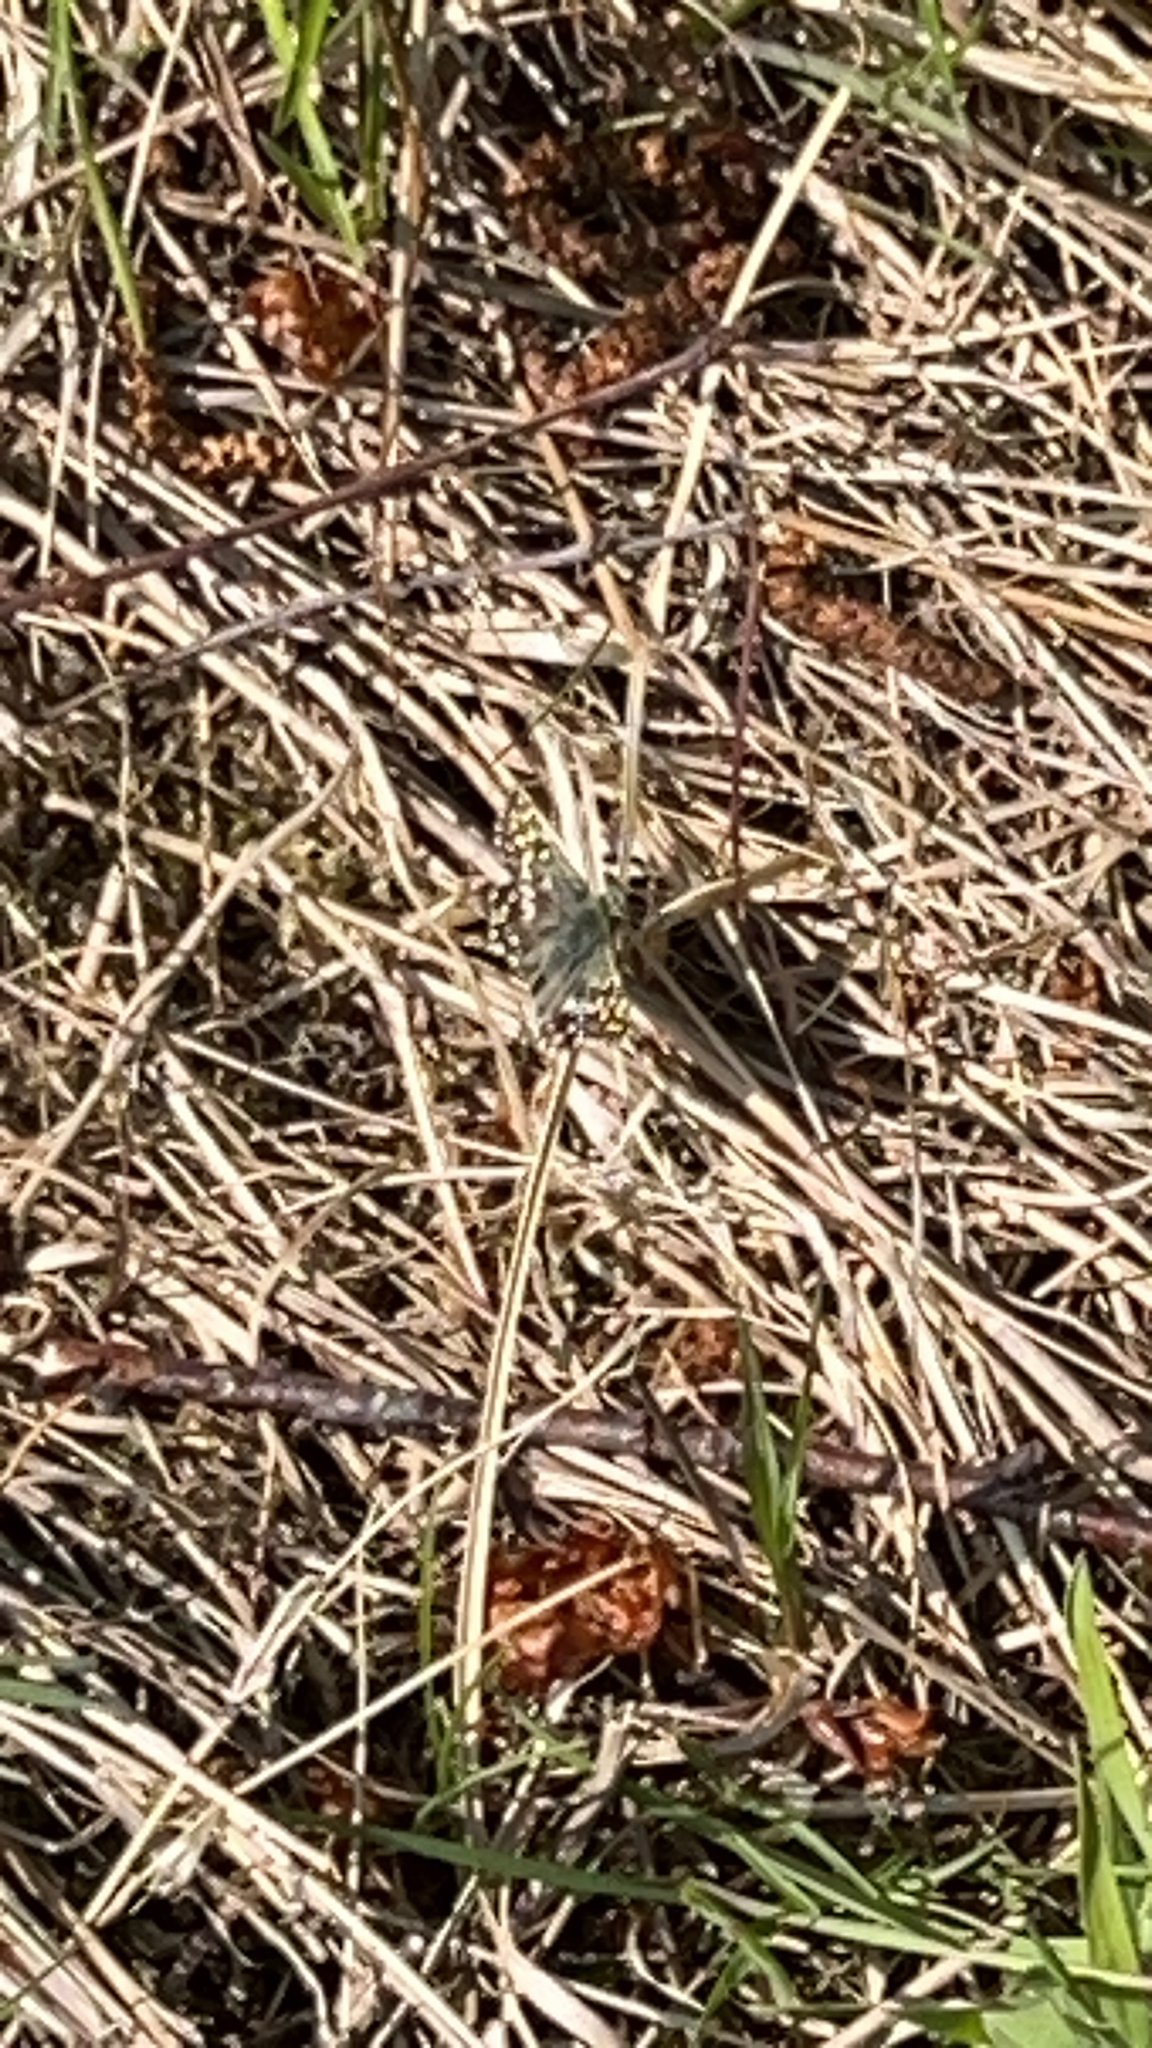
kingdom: Animalia
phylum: Arthropoda
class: Insecta
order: Lepidoptera
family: Hesperiidae
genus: Pyrgus
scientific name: Pyrgus malvae
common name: Grizzled skipper
